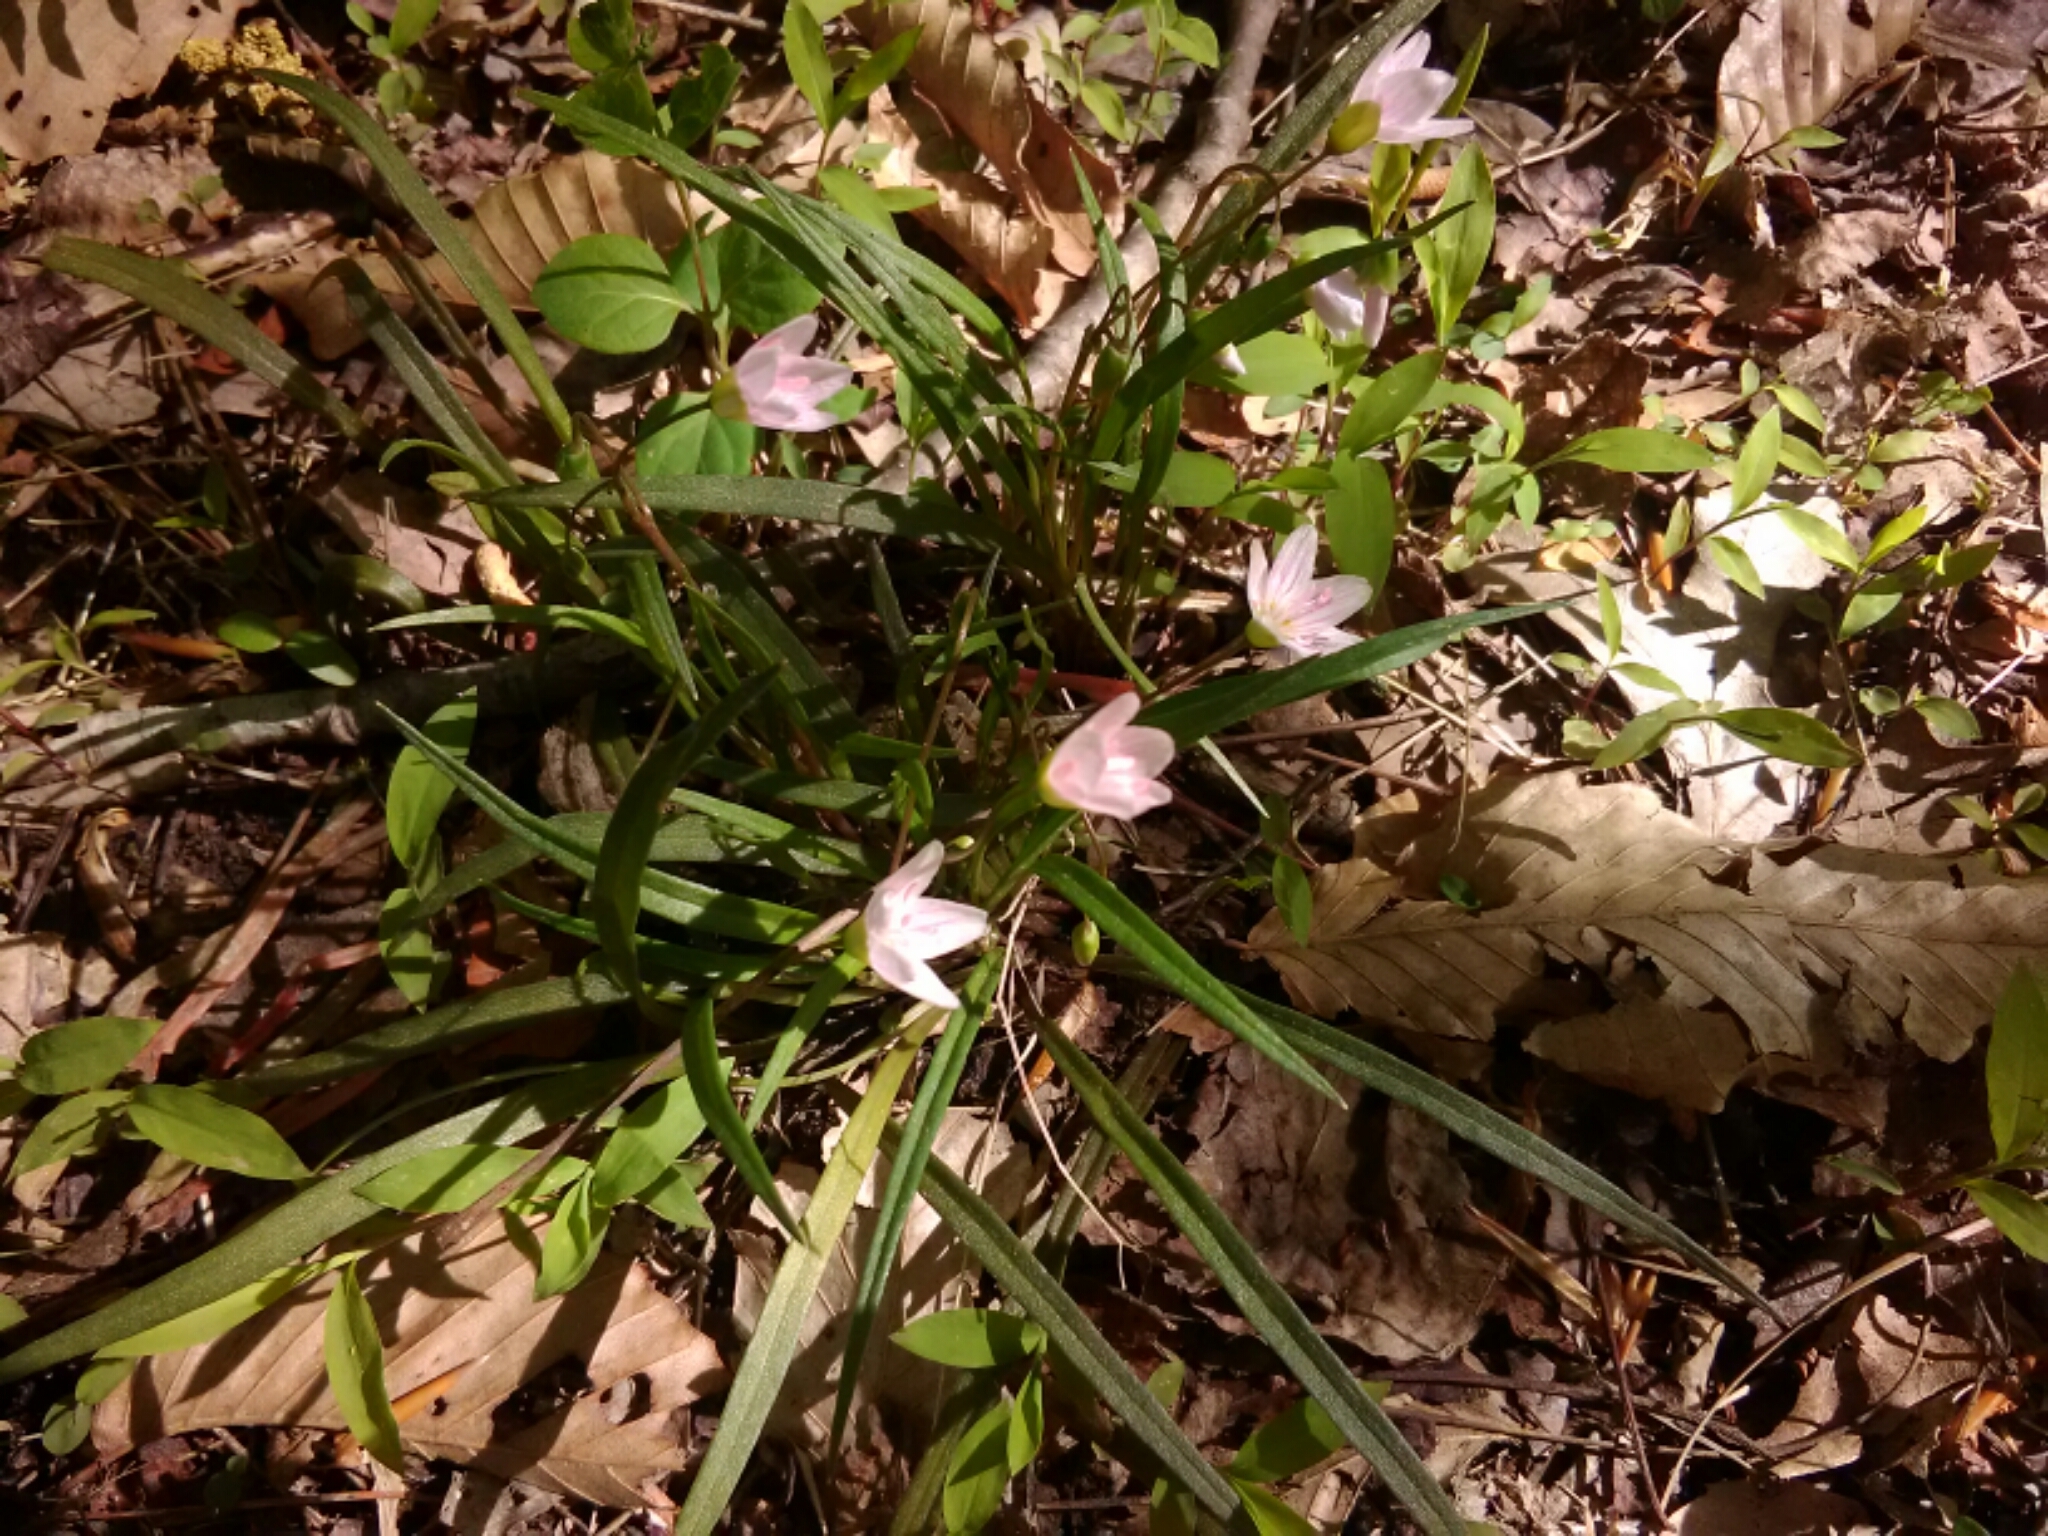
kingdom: Plantae
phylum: Tracheophyta
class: Magnoliopsida
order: Caryophyllales
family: Montiaceae
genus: Claytonia
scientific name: Claytonia virginica
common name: Virginia springbeauty
